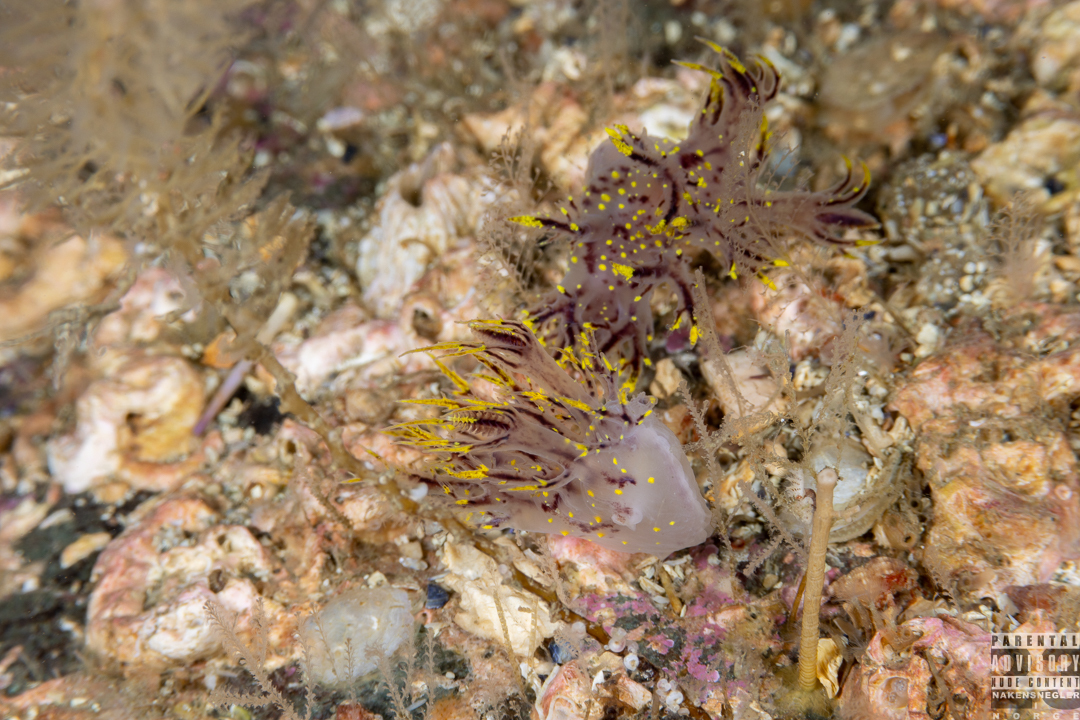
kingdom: Animalia
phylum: Mollusca
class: Gastropoda
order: Nudibranchia
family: Dendronotidae
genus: Dendronotus
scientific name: Dendronotus arcticus
